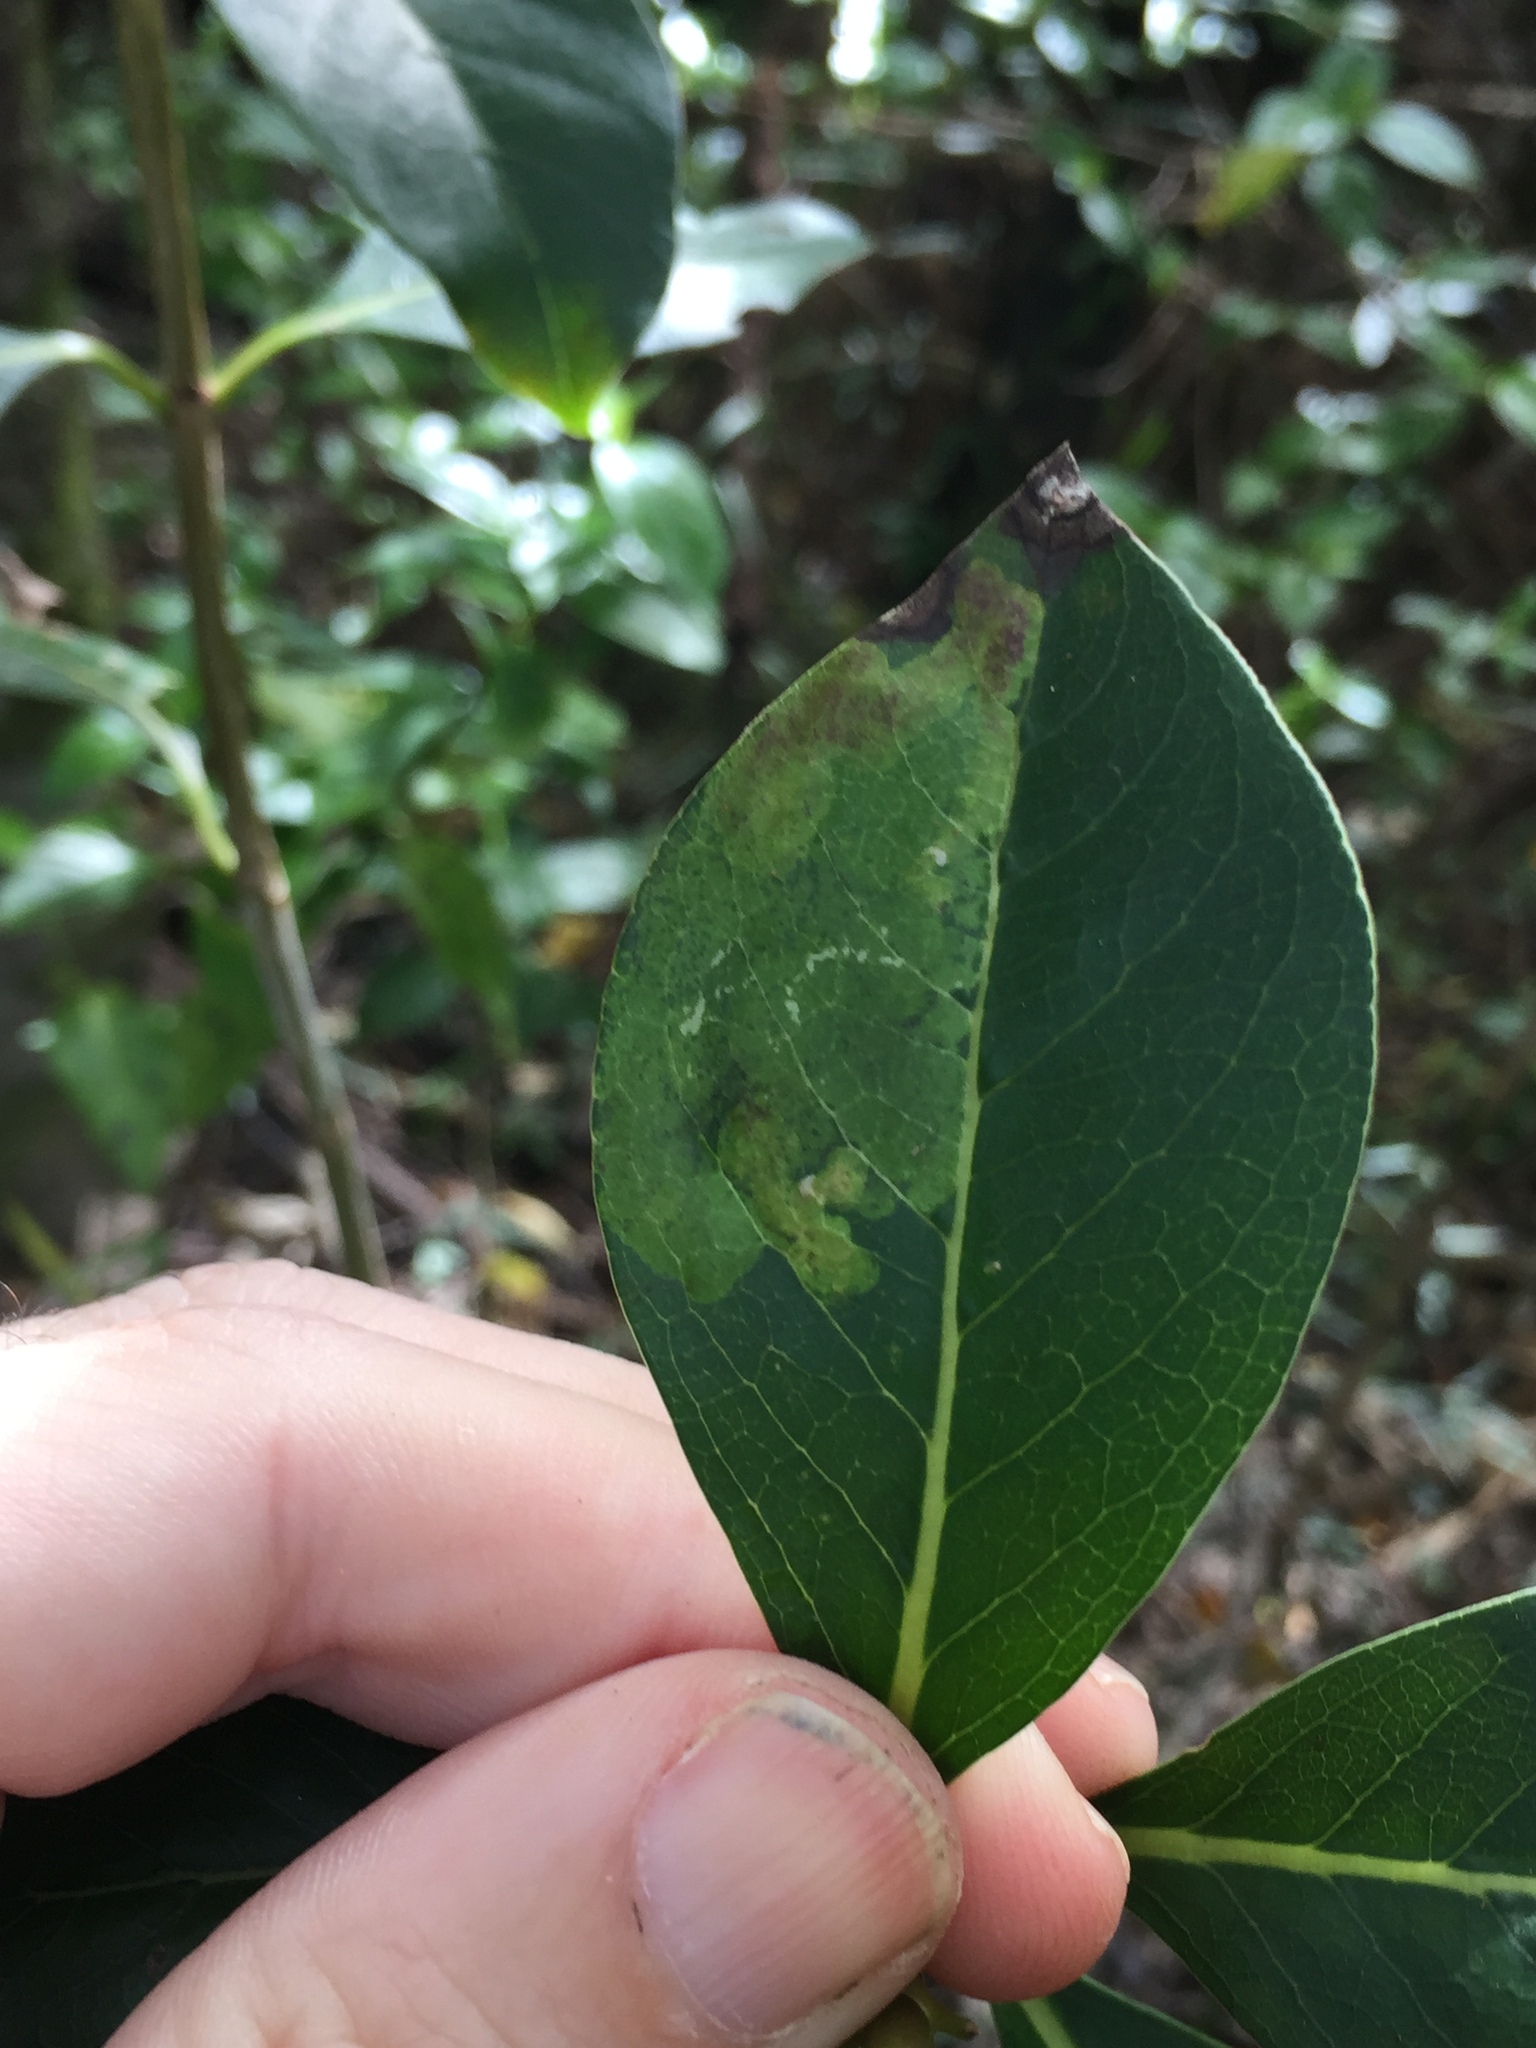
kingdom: Animalia
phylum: Arthropoda
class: Insecta
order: Lepidoptera
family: Gracillariidae
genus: Corythoxestis
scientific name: Corythoxestis zorionella
